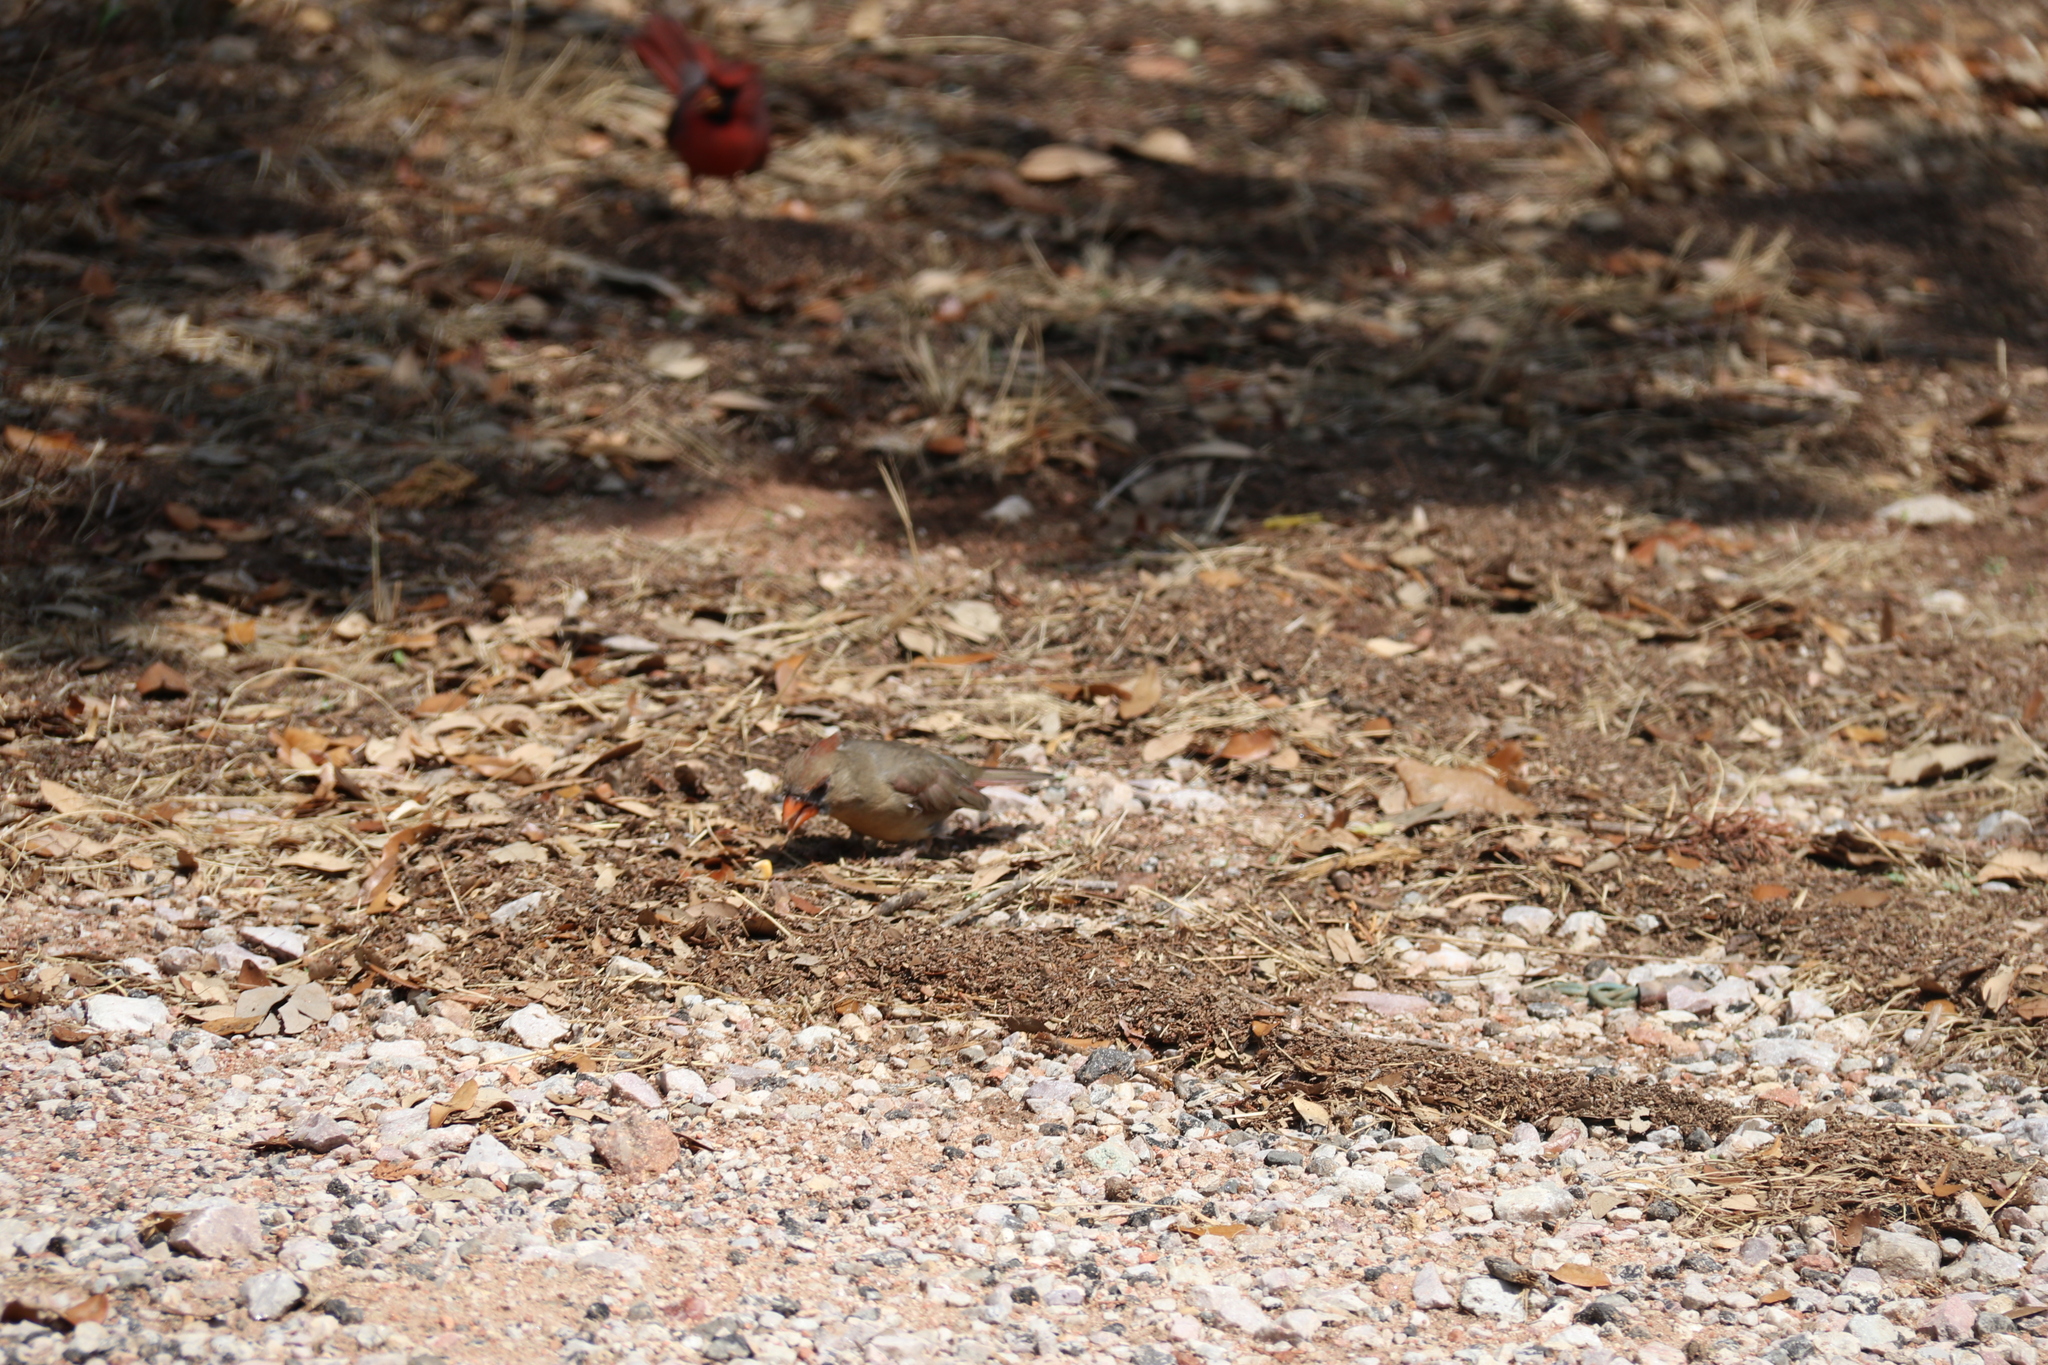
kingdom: Animalia
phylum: Chordata
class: Aves
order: Passeriformes
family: Cardinalidae
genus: Cardinalis
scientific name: Cardinalis cardinalis
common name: Northern cardinal
